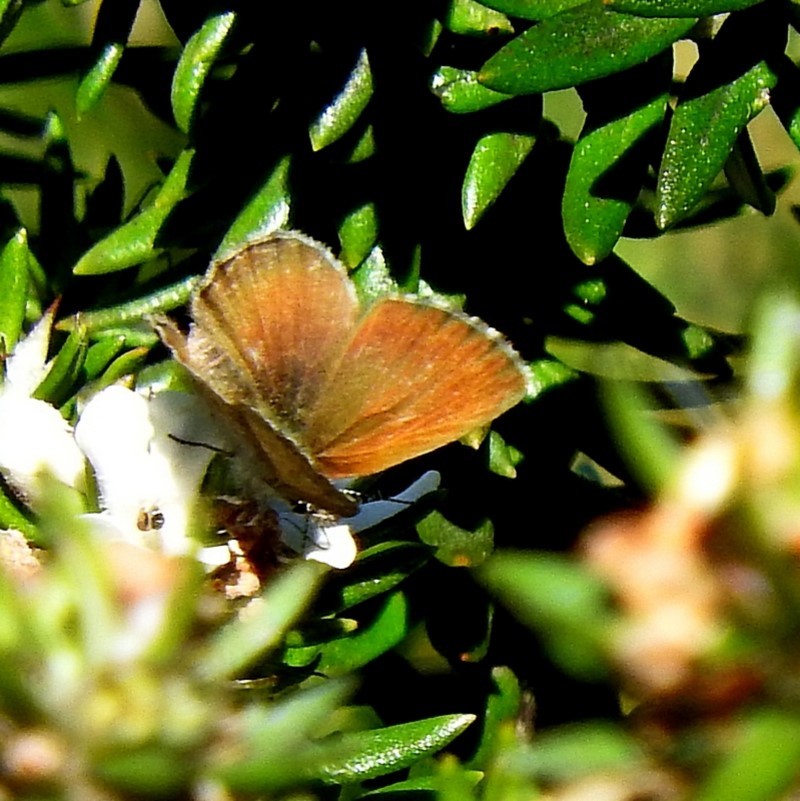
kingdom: Animalia
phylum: Arthropoda
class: Insecta
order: Lepidoptera
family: Lycaenidae
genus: Neolucia
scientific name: Neolucia mathewi
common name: Mathew's blue
